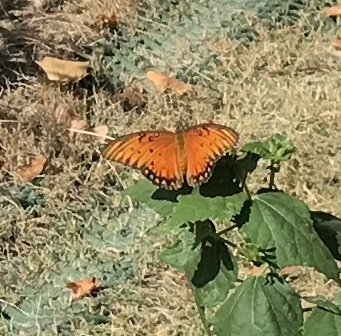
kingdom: Animalia
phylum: Arthropoda
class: Insecta
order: Lepidoptera
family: Nymphalidae
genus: Dione
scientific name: Dione vanillae
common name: Gulf fritillary
